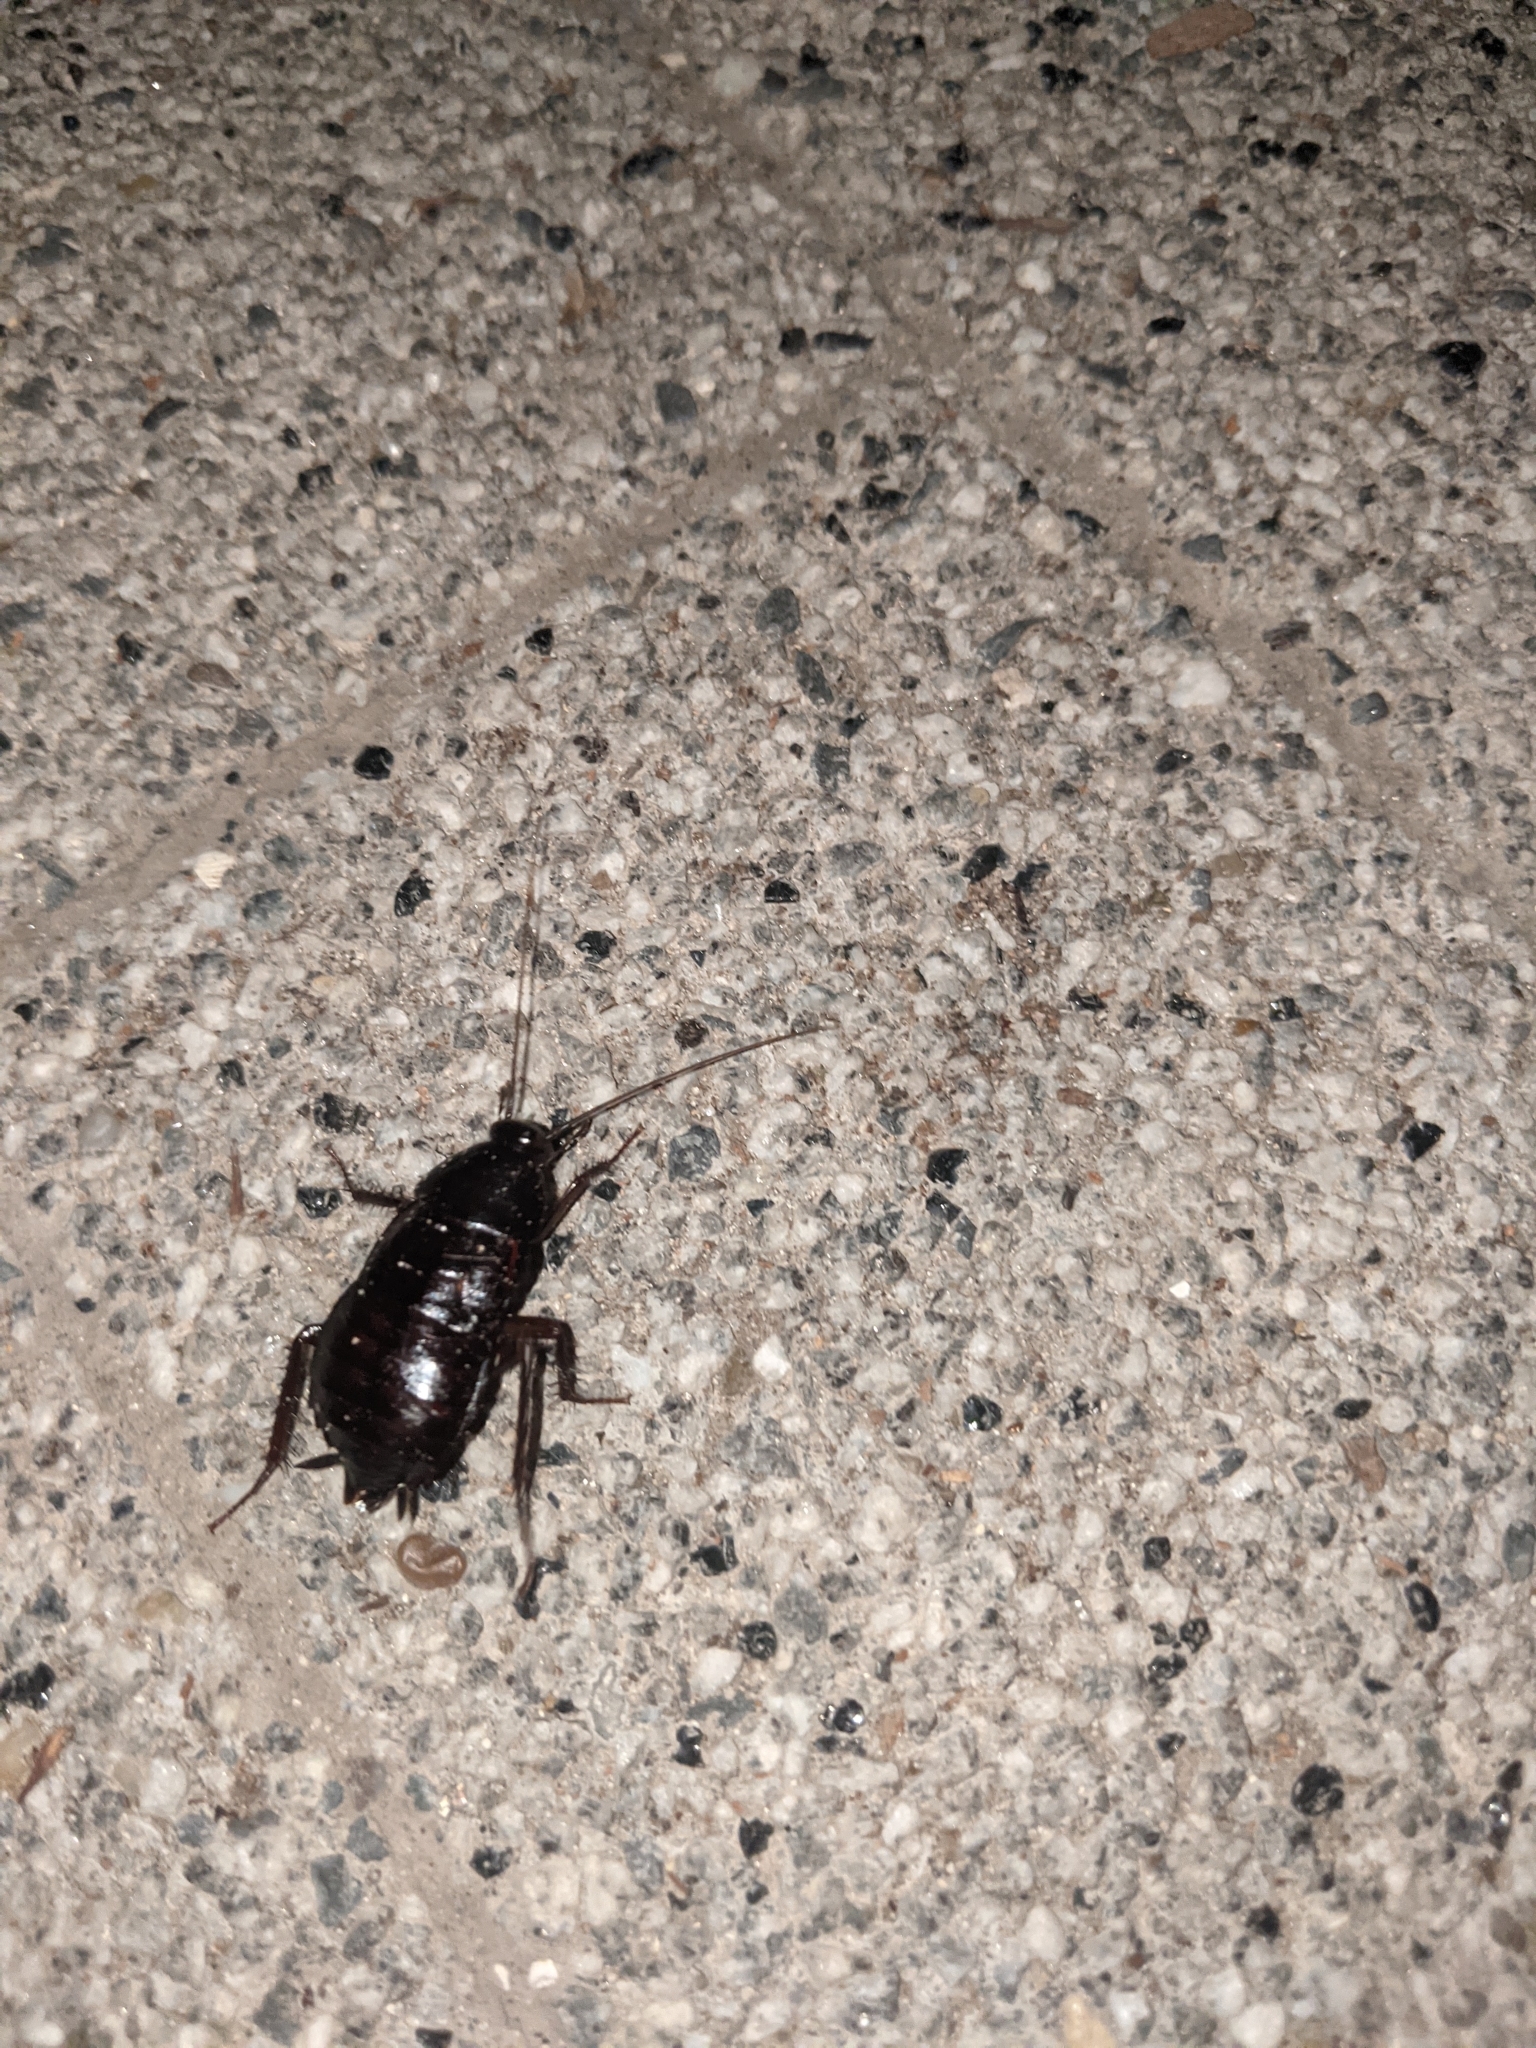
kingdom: Animalia
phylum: Arthropoda
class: Insecta
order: Blattodea
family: Blattidae
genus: Blatta
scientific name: Blatta orientalis
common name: Oriental cockroach
